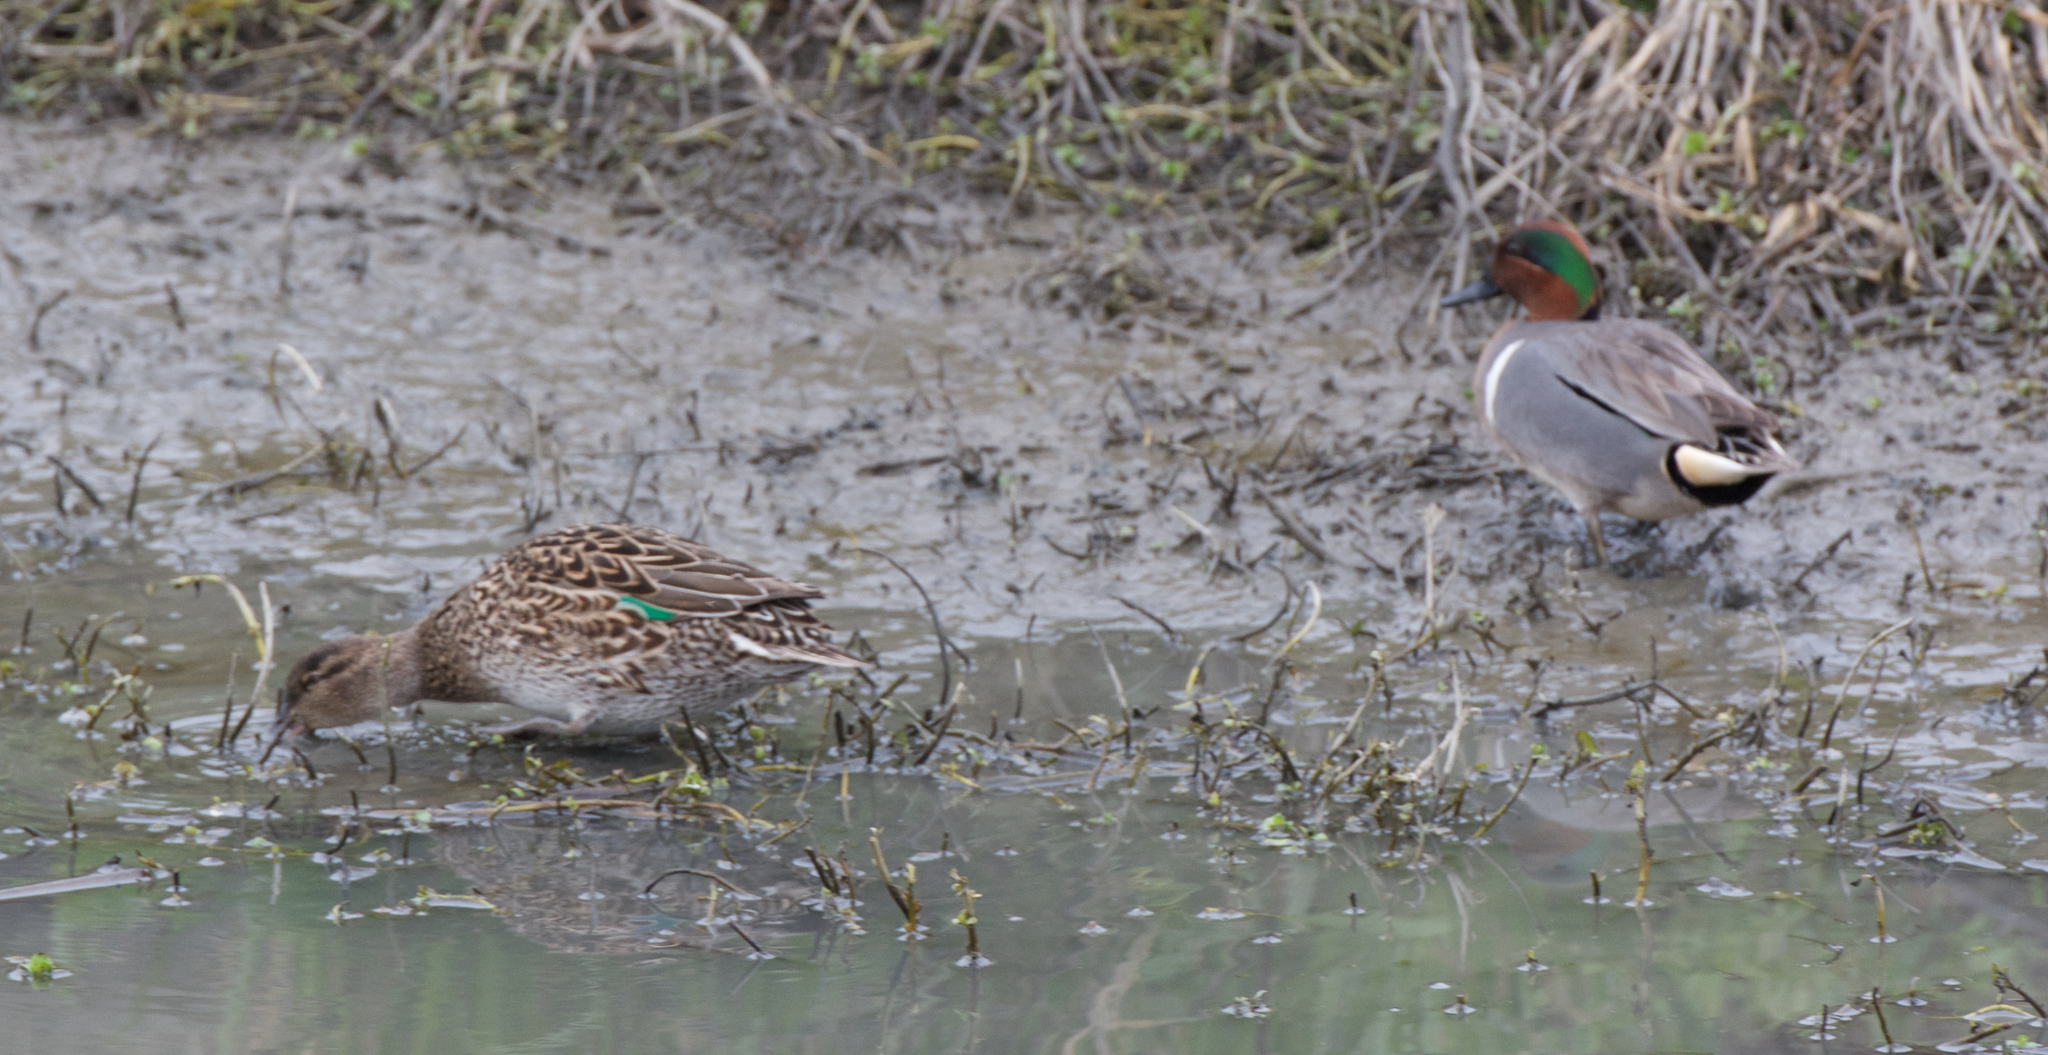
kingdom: Animalia
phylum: Chordata
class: Aves
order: Anseriformes
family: Anatidae
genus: Anas
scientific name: Anas crecca
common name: Eurasian teal
